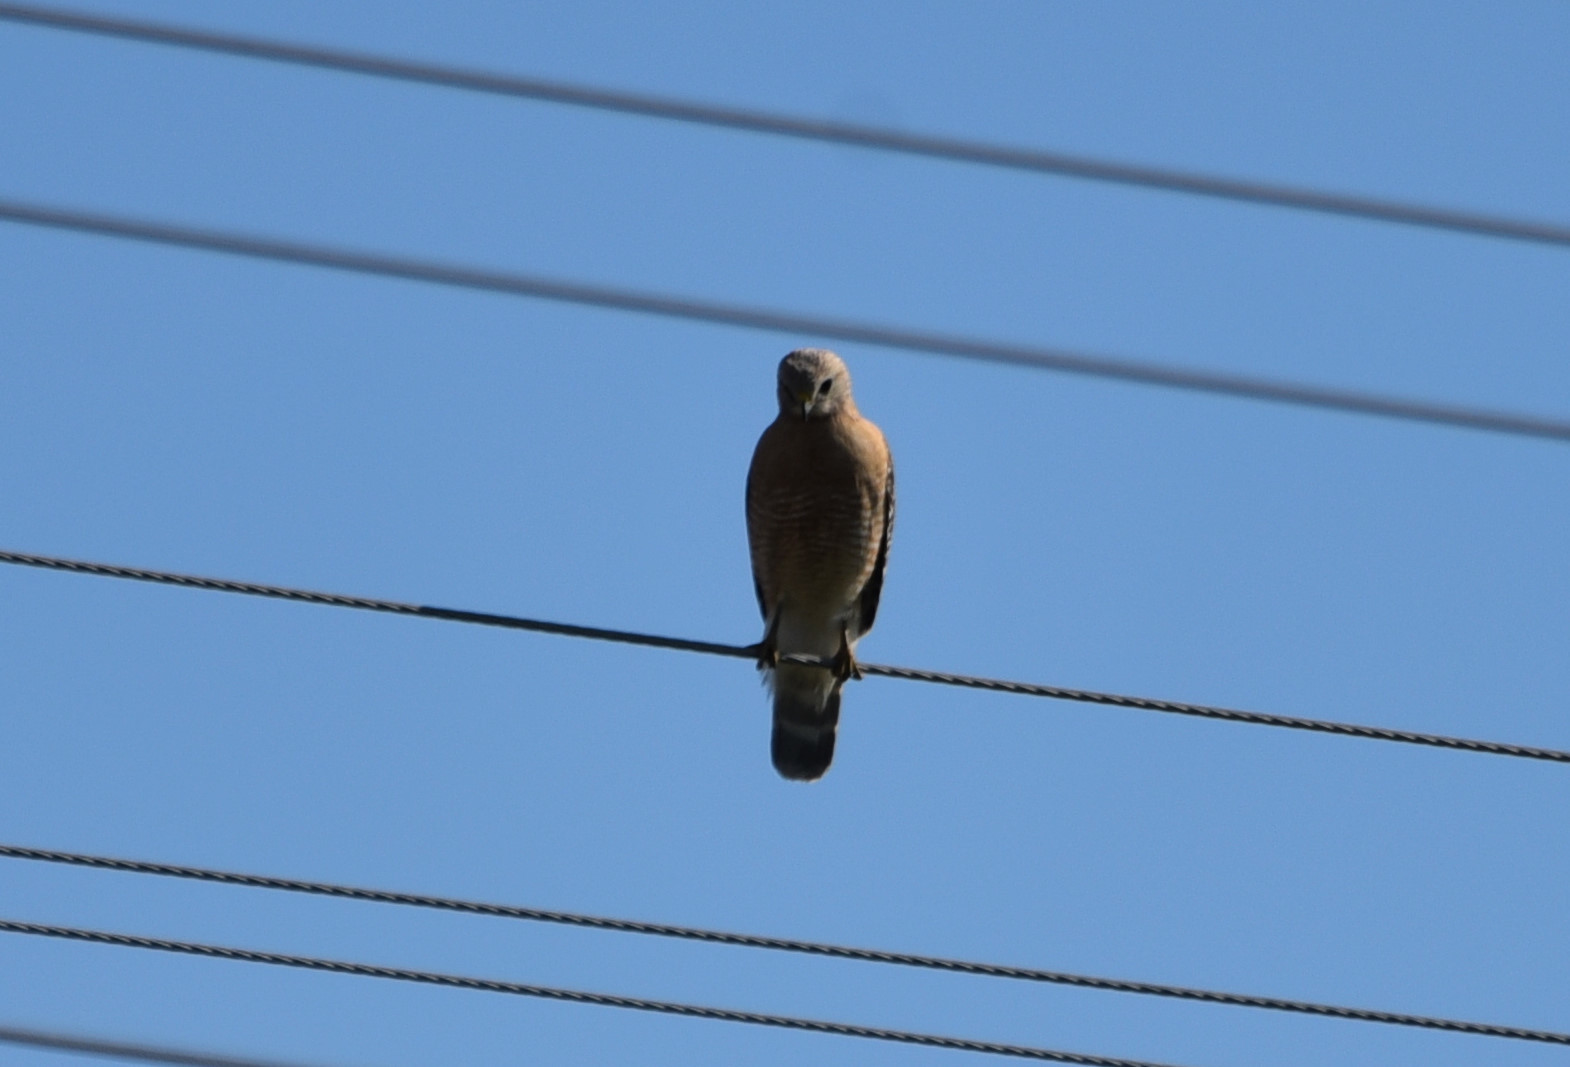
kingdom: Animalia
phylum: Chordata
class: Aves
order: Accipitriformes
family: Accipitridae
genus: Buteo
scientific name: Buteo lineatus
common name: Red-shouldered hawk
